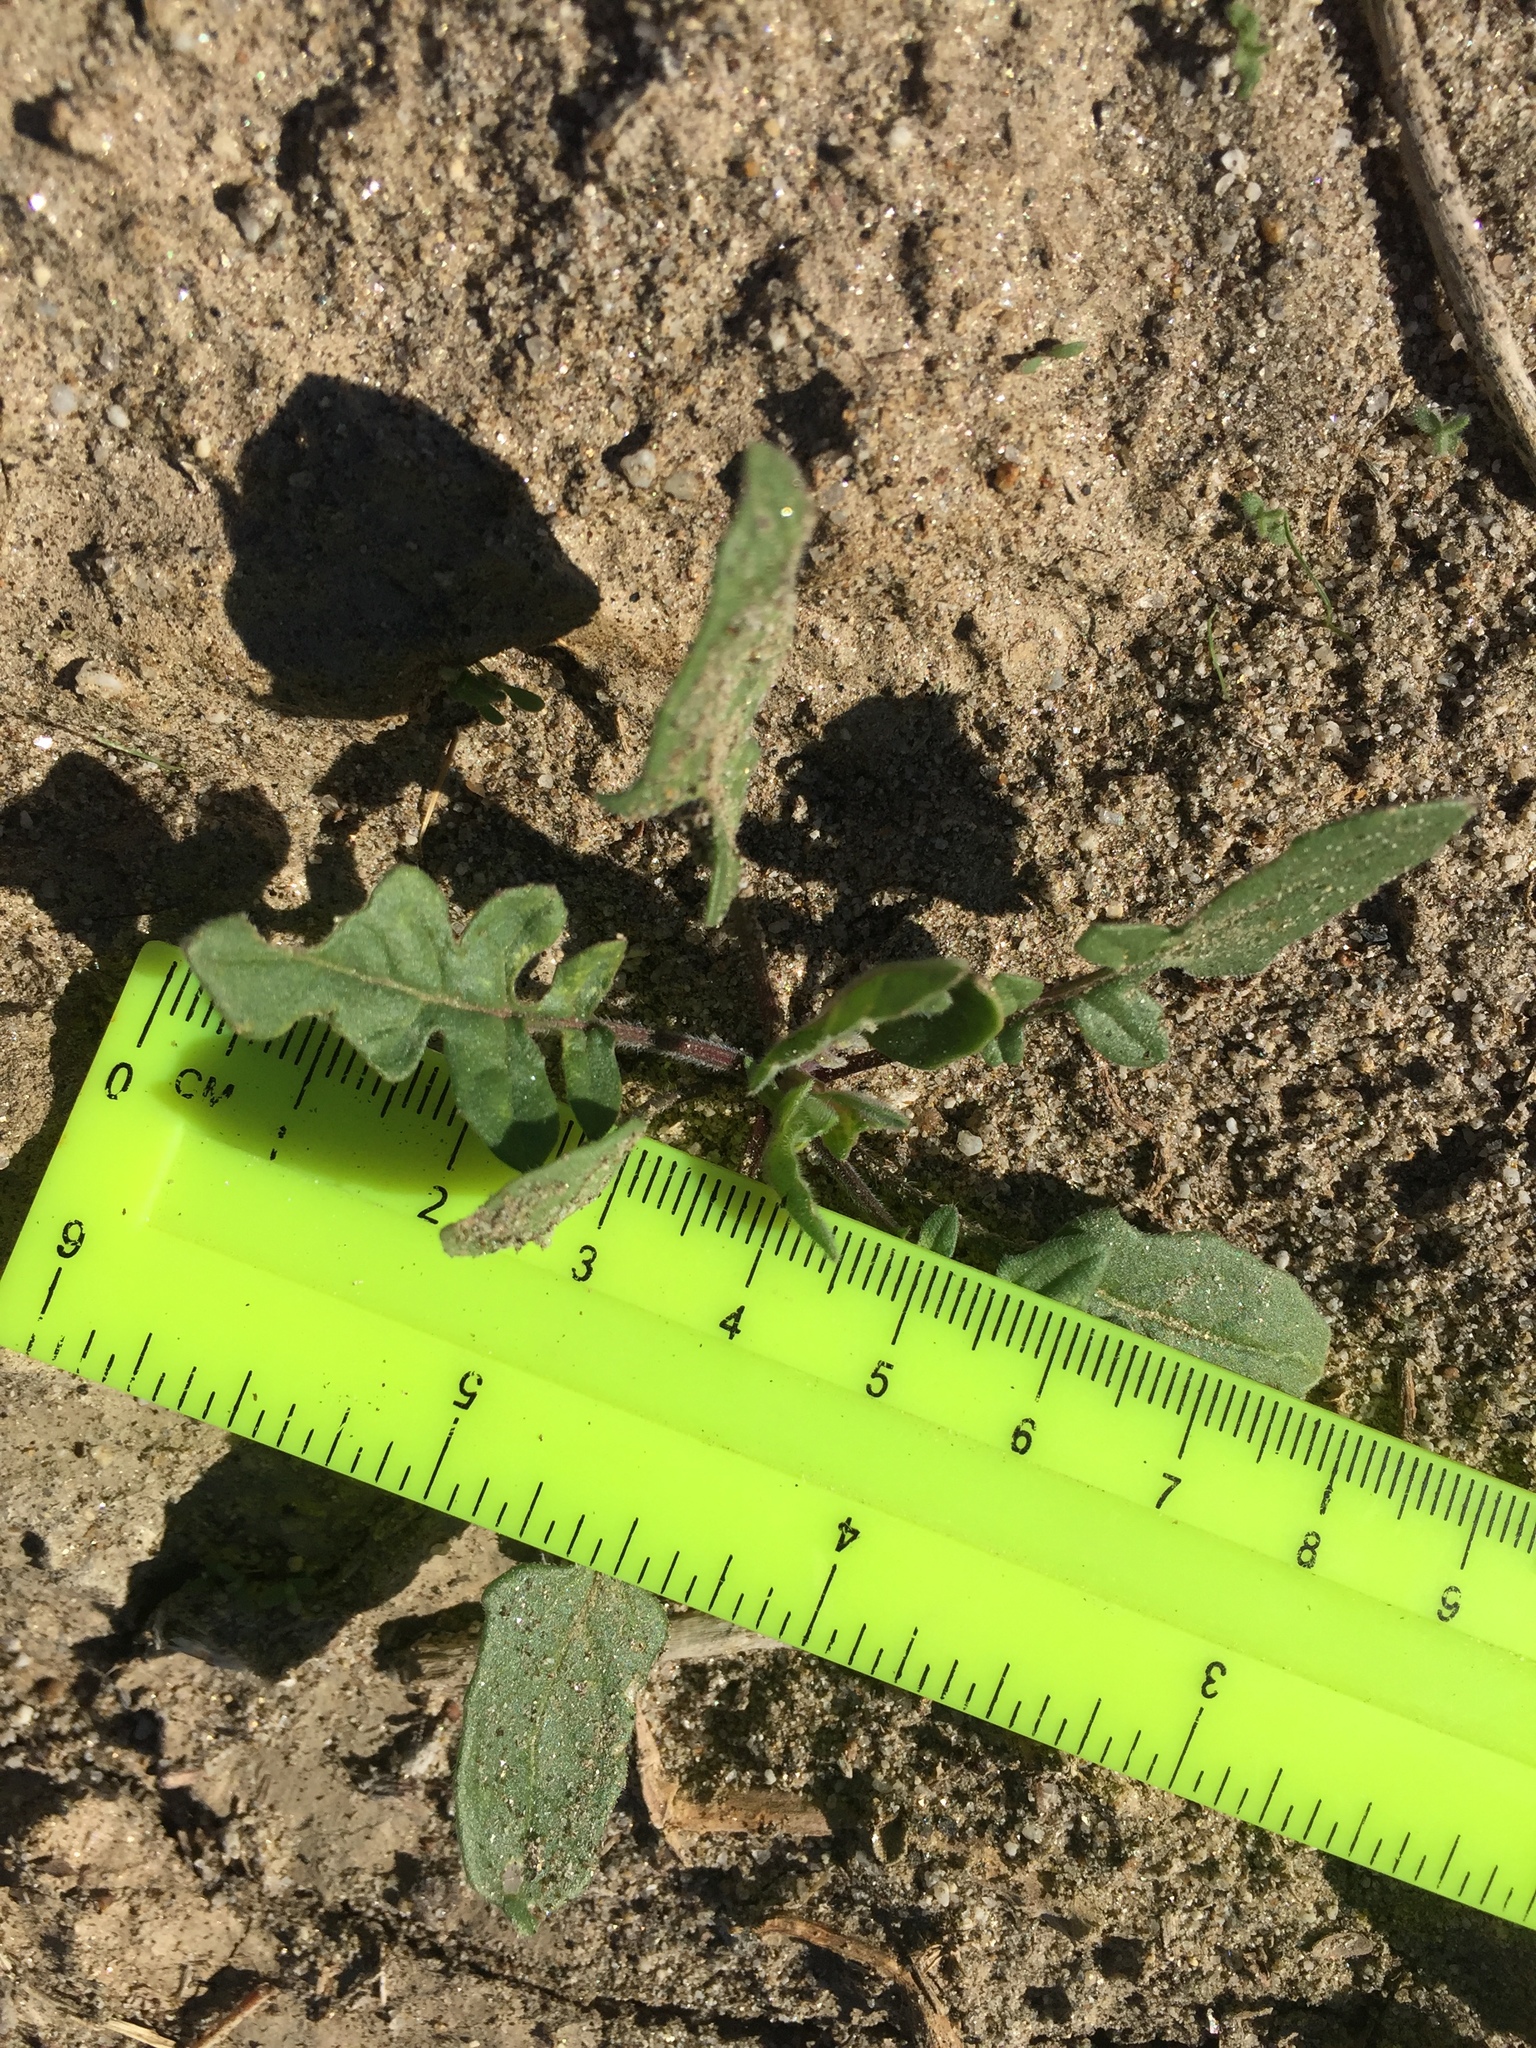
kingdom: Plantae
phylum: Tracheophyta
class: Magnoliopsida
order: Brassicales
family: Brassicaceae
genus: Sisymbrium
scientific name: Sisymbrium irio
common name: London rocket
